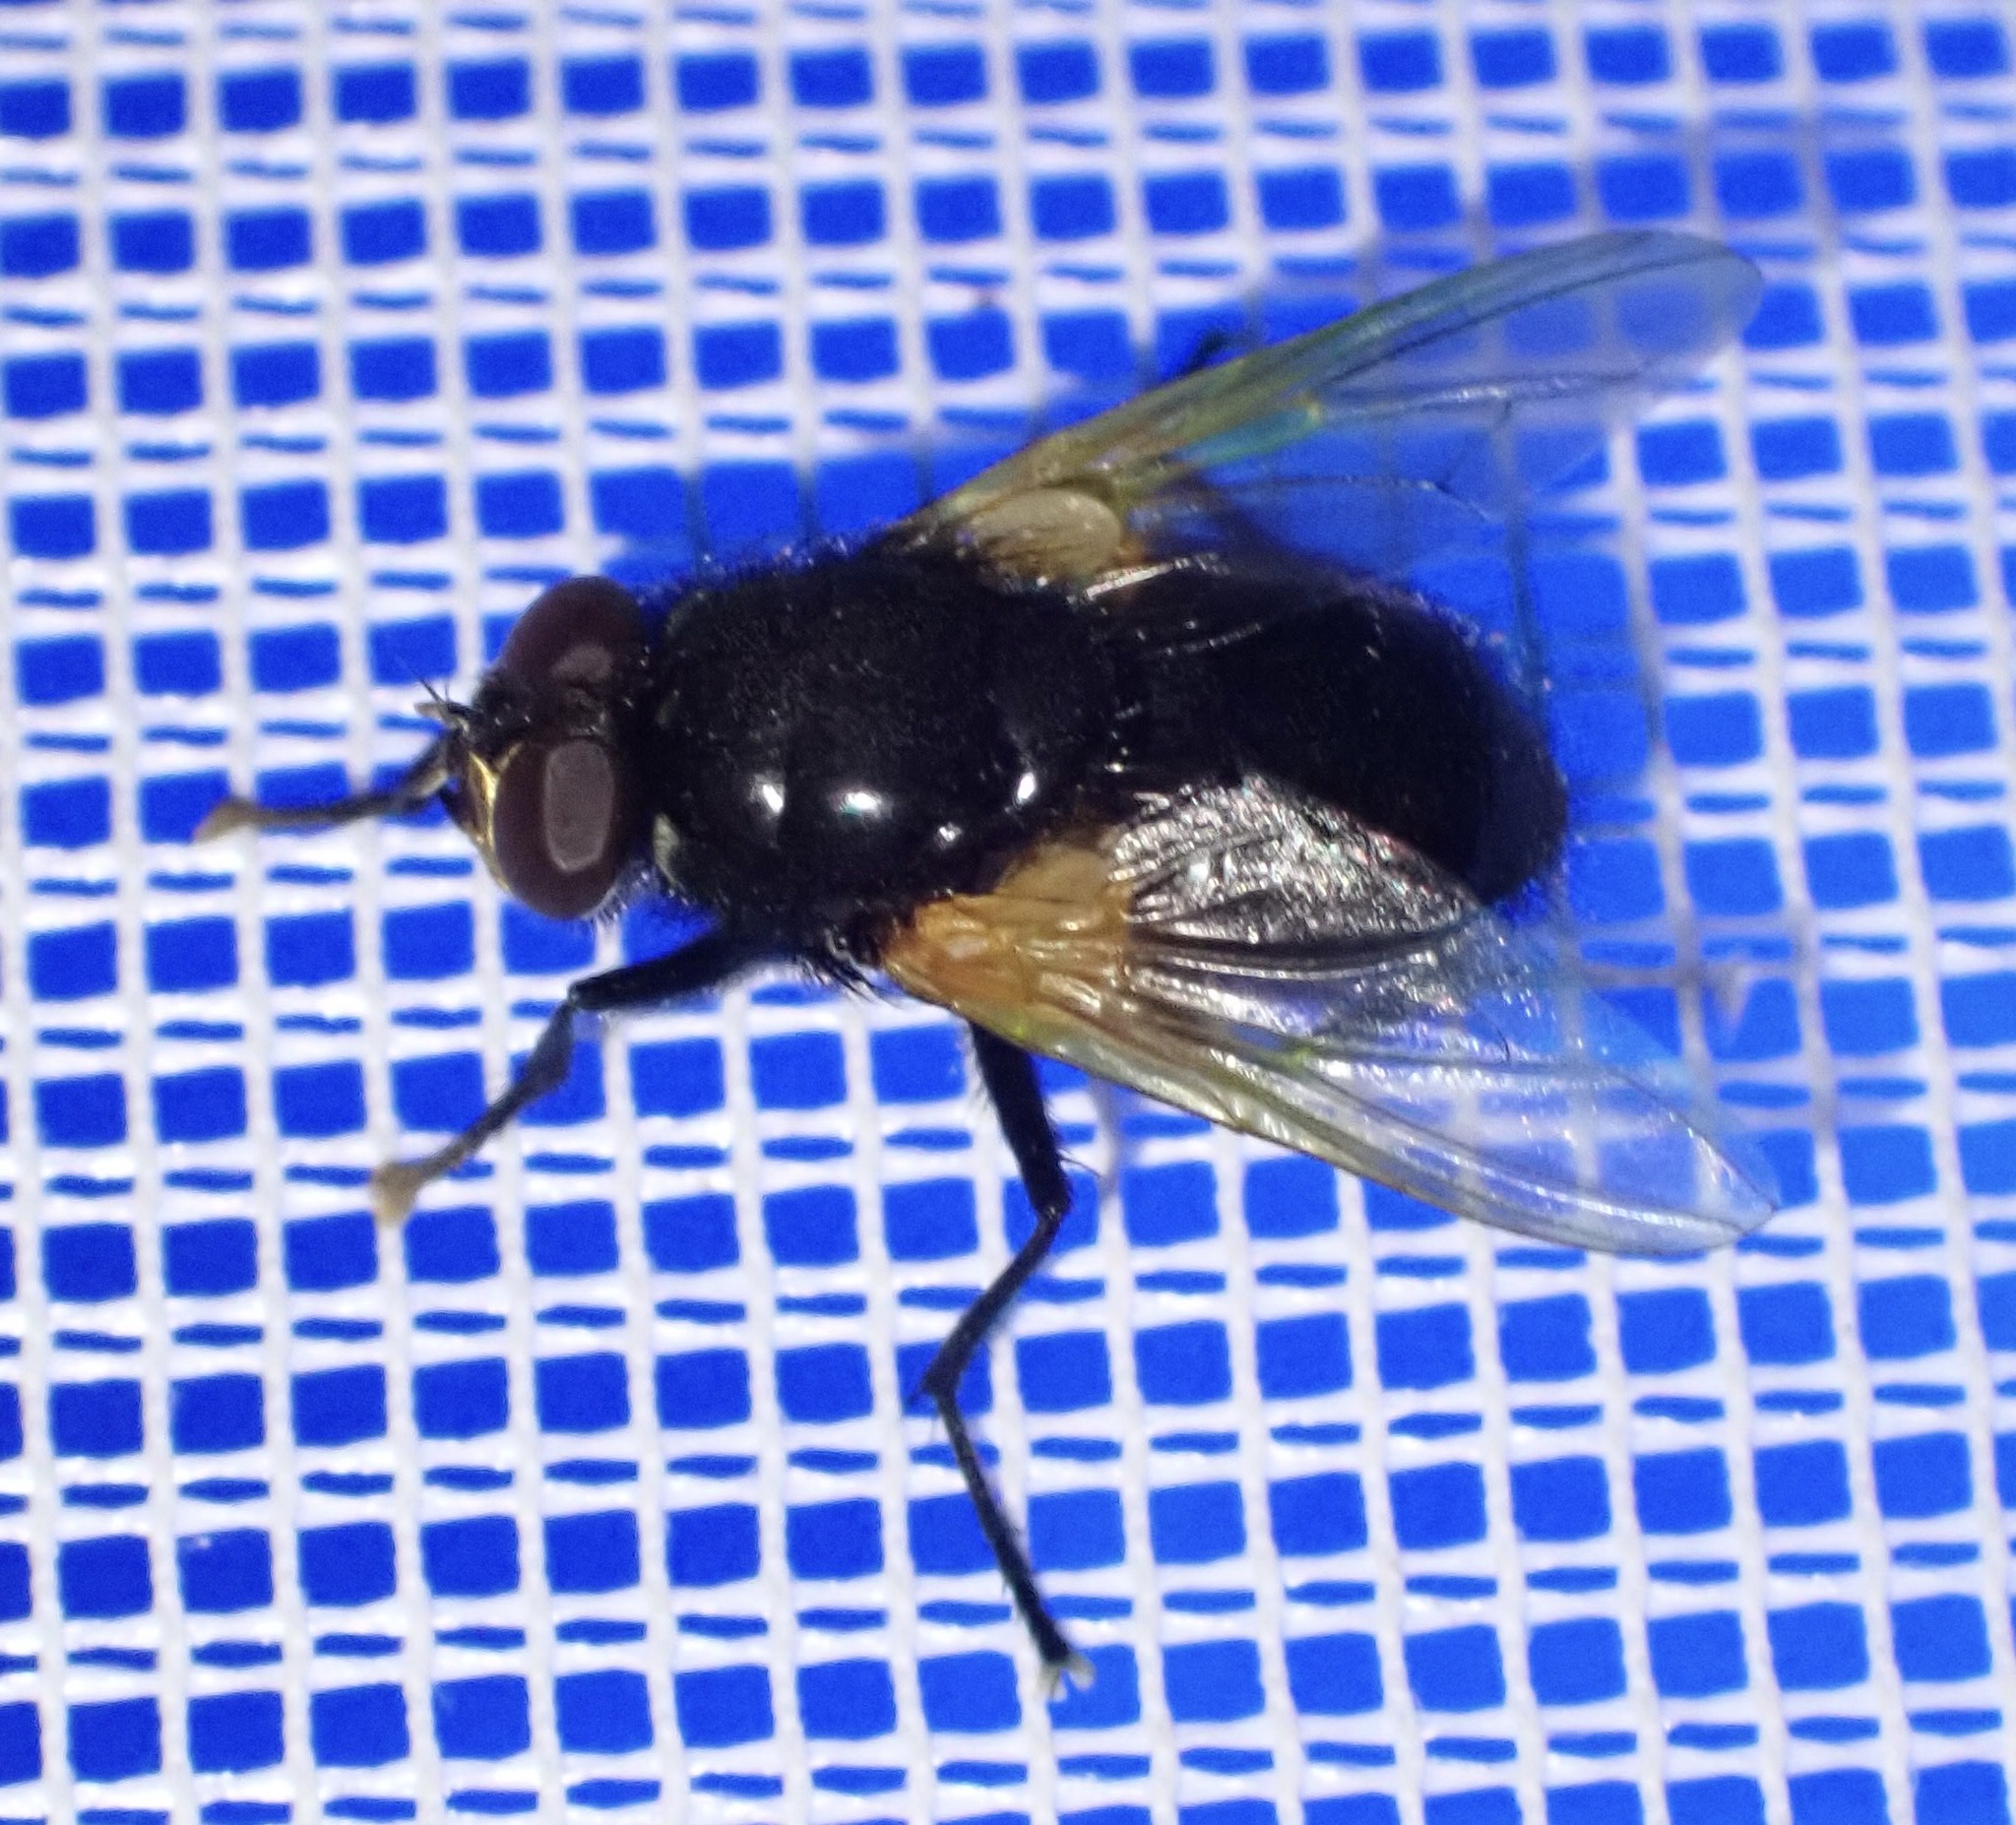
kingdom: Animalia
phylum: Arthropoda
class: Insecta
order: Diptera
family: Muscidae
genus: Mesembrina
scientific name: Mesembrina meridiana
